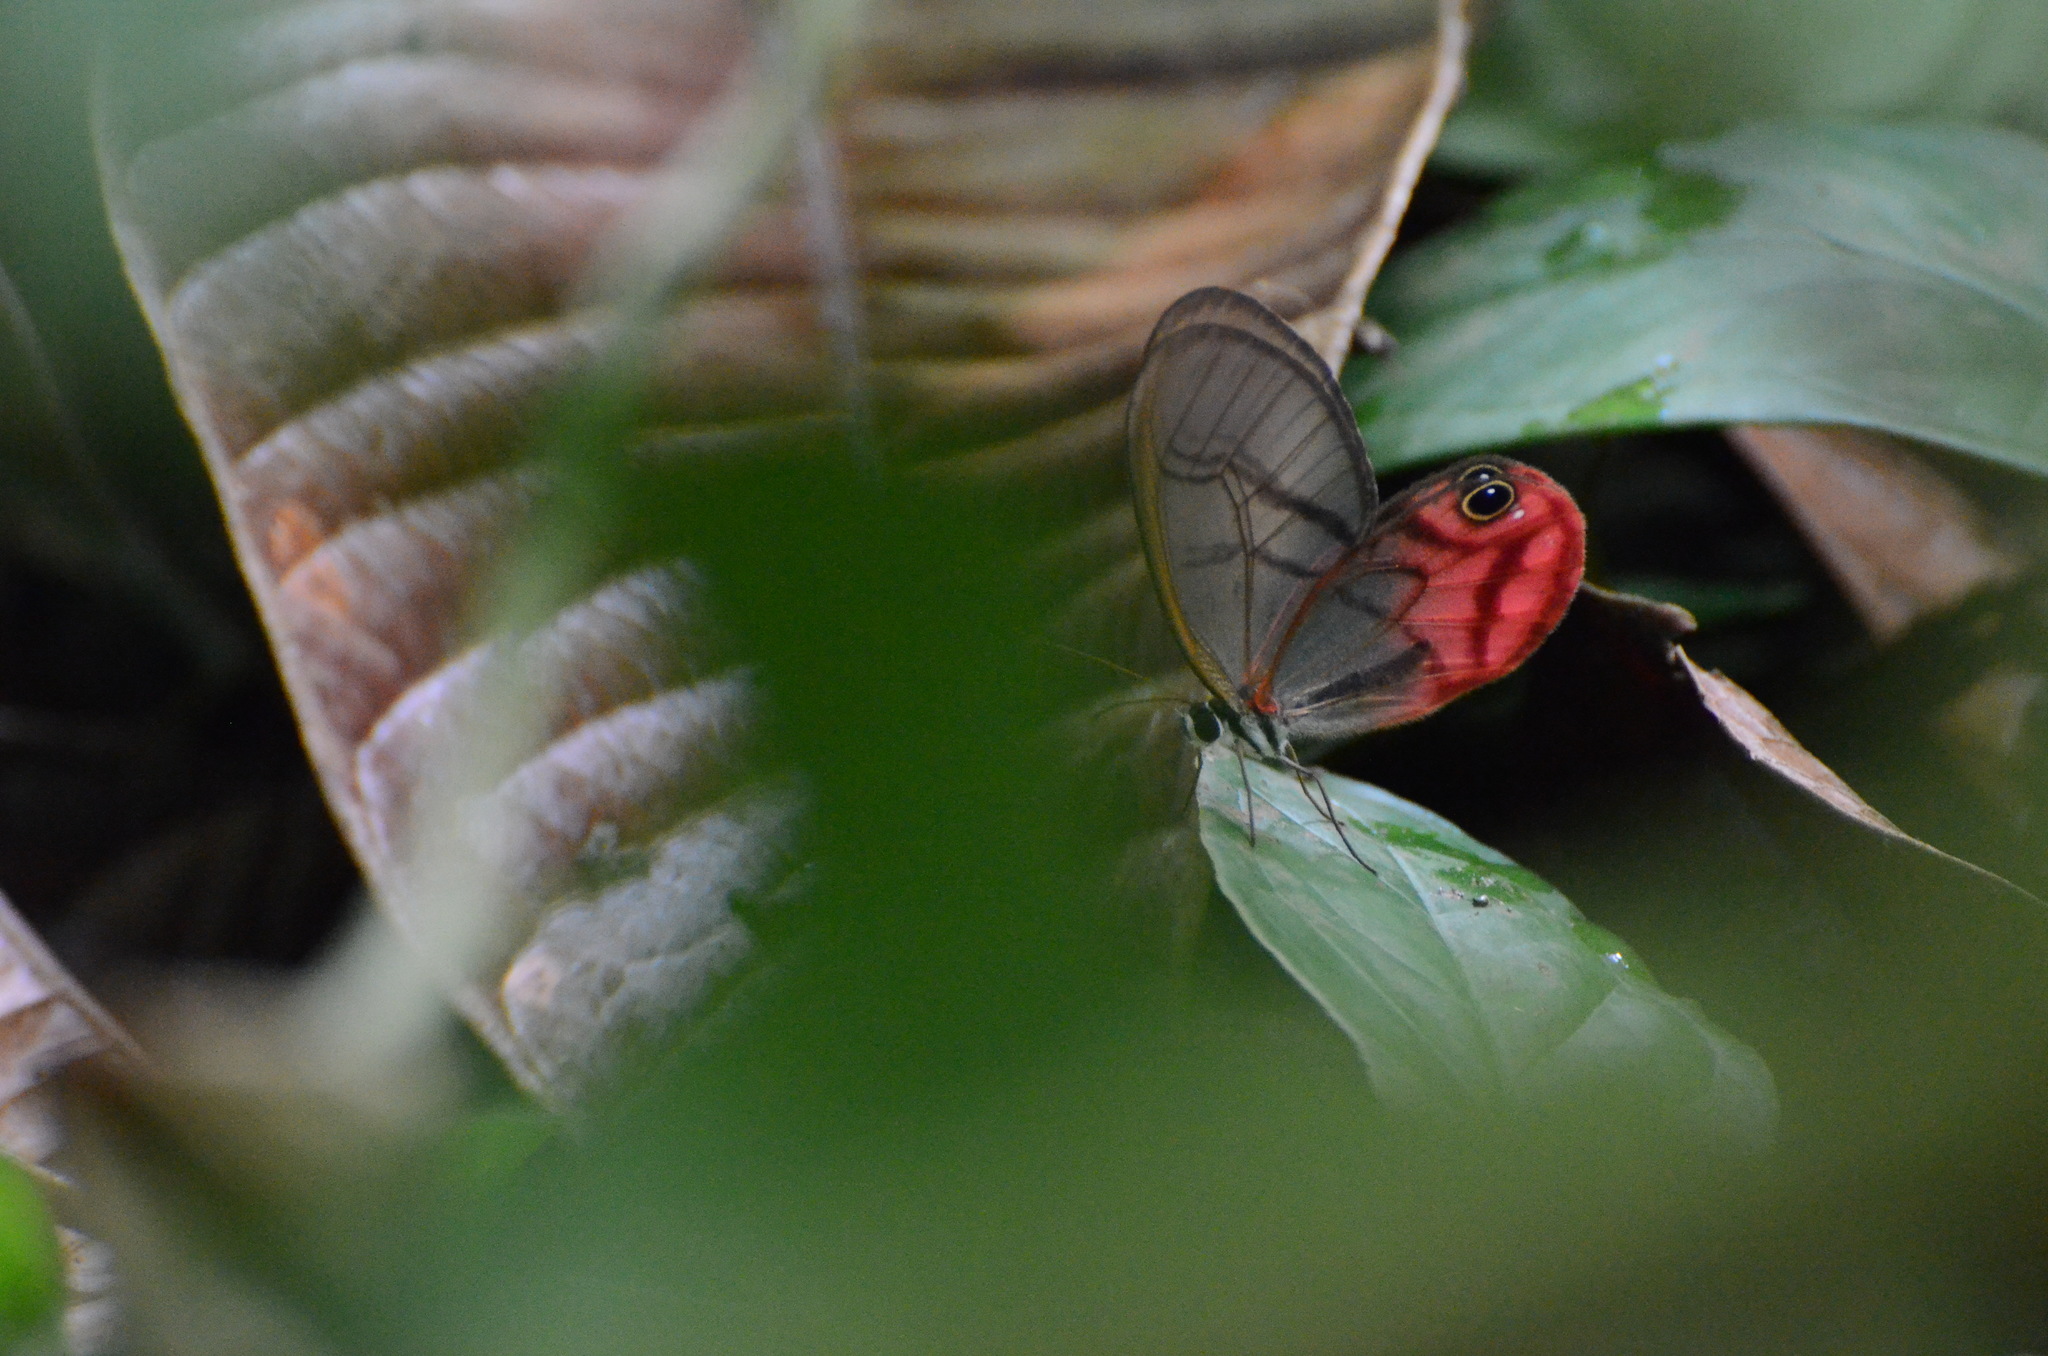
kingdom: Animalia
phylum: Arthropoda
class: Insecta
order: Lepidoptera
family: Nymphalidae
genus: Cithaerias
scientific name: Cithaerias pireta
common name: Rusted clearwing-satyr
